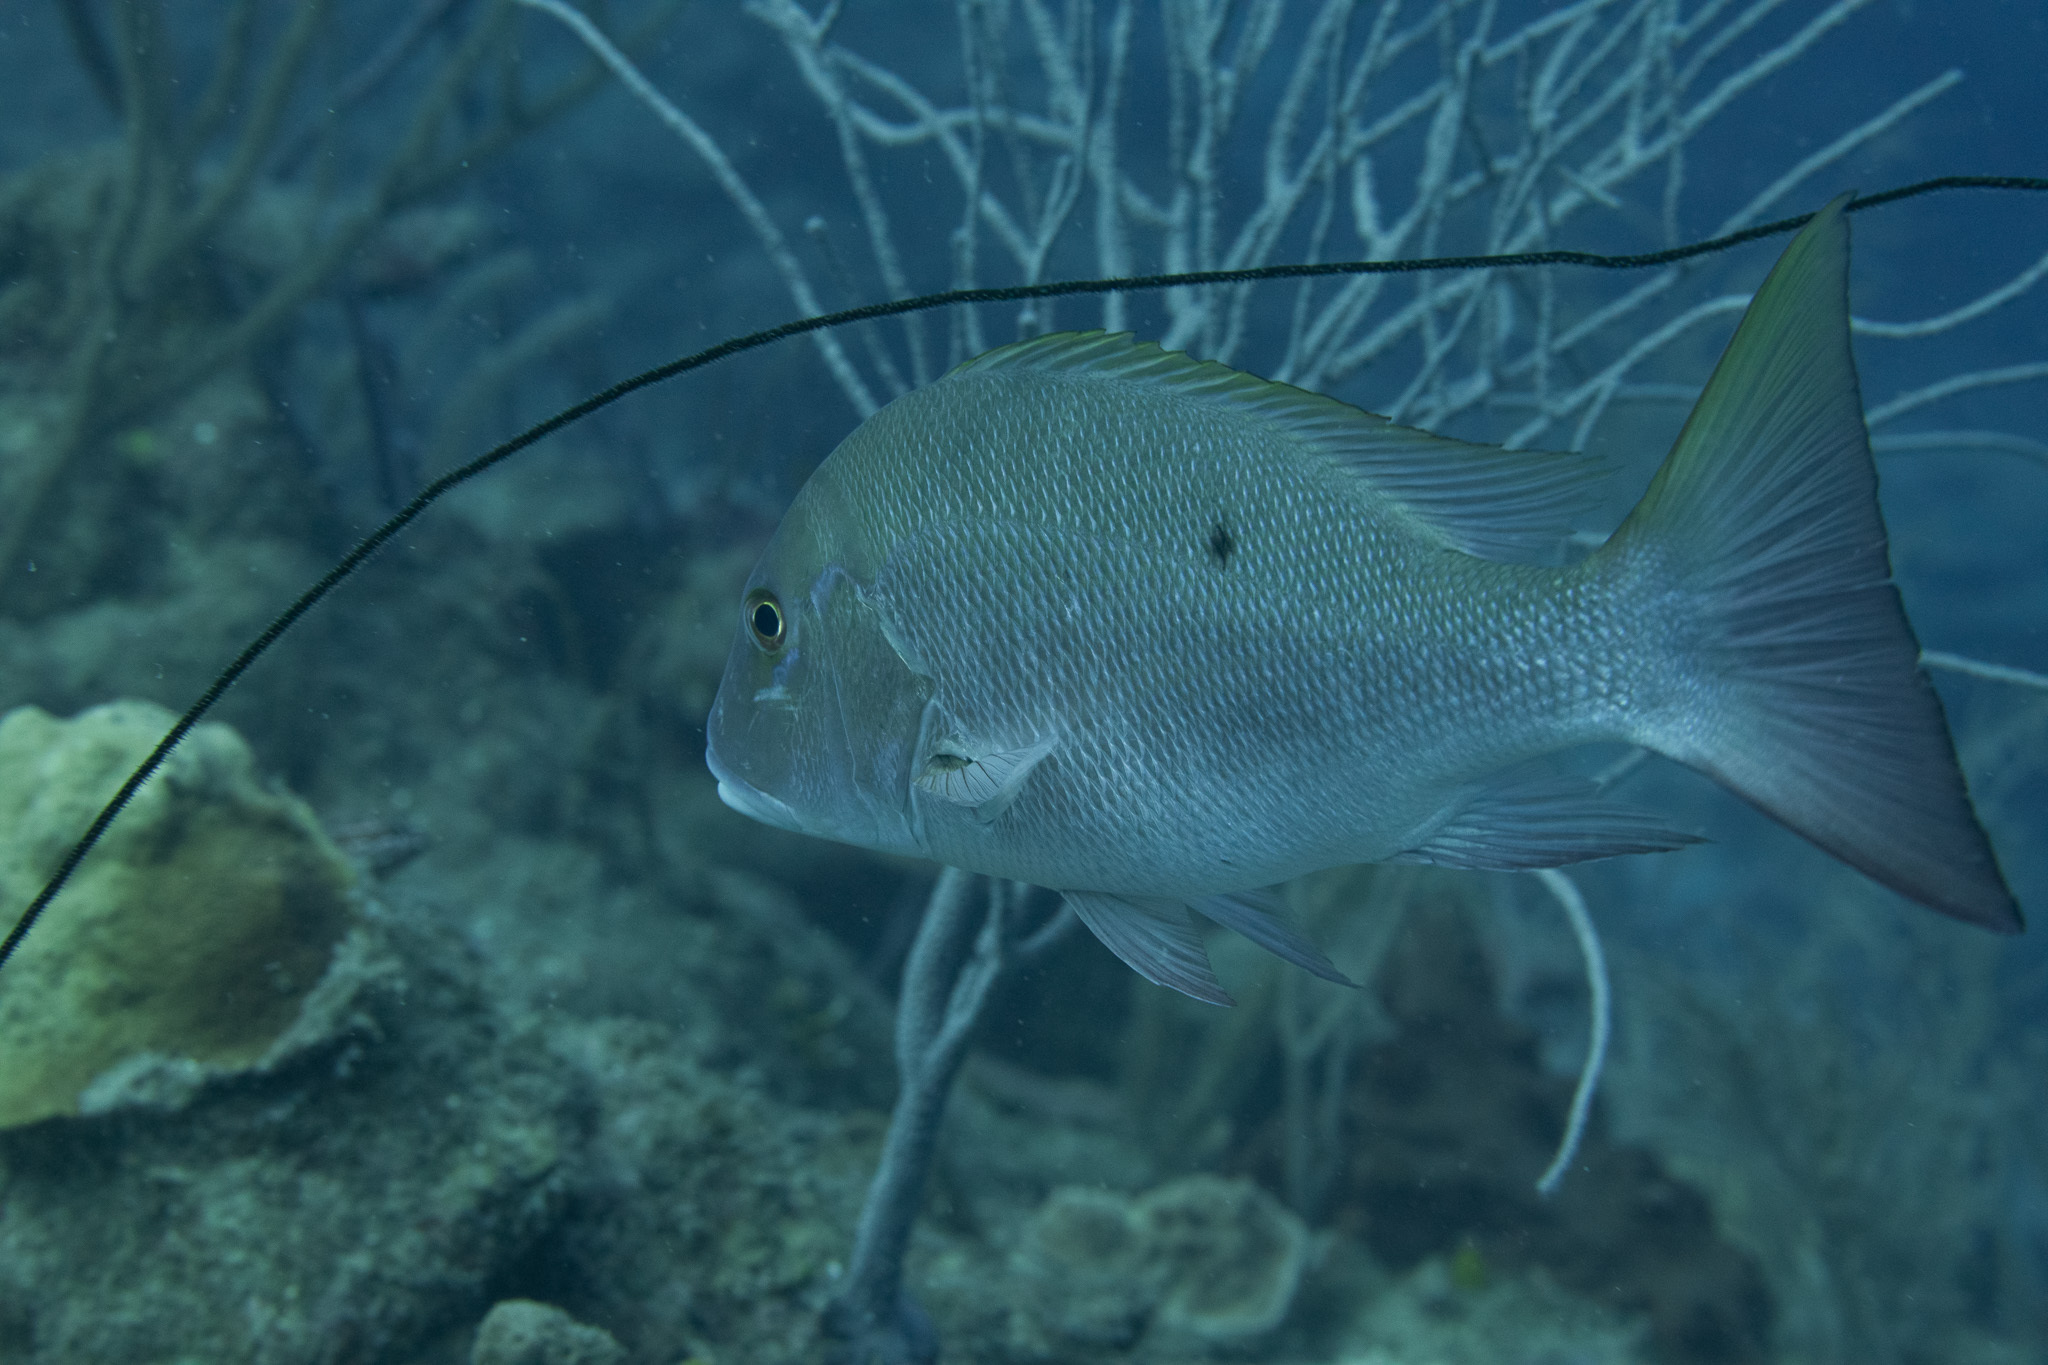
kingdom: Animalia
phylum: Chordata
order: Perciformes
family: Lutjanidae
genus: Lutjanus
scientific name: Lutjanus analis
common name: Mutton snapper
